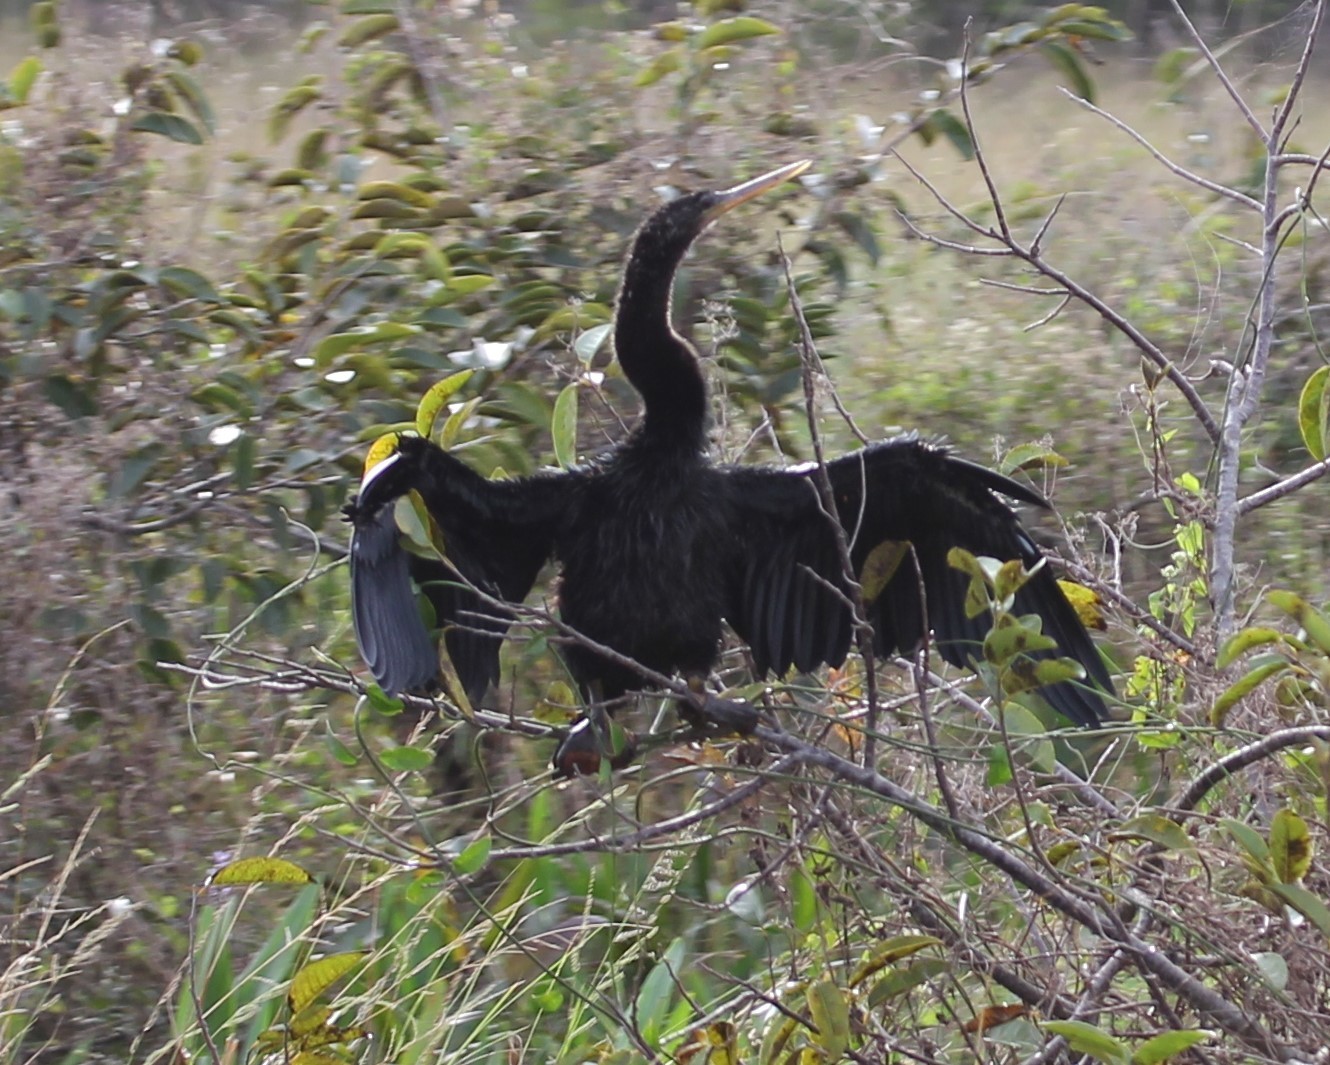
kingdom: Animalia
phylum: Chordata
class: Aves
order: Suliformes
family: Anhingidae
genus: Anhinga
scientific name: Anhinga anhinga
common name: Anhinga
